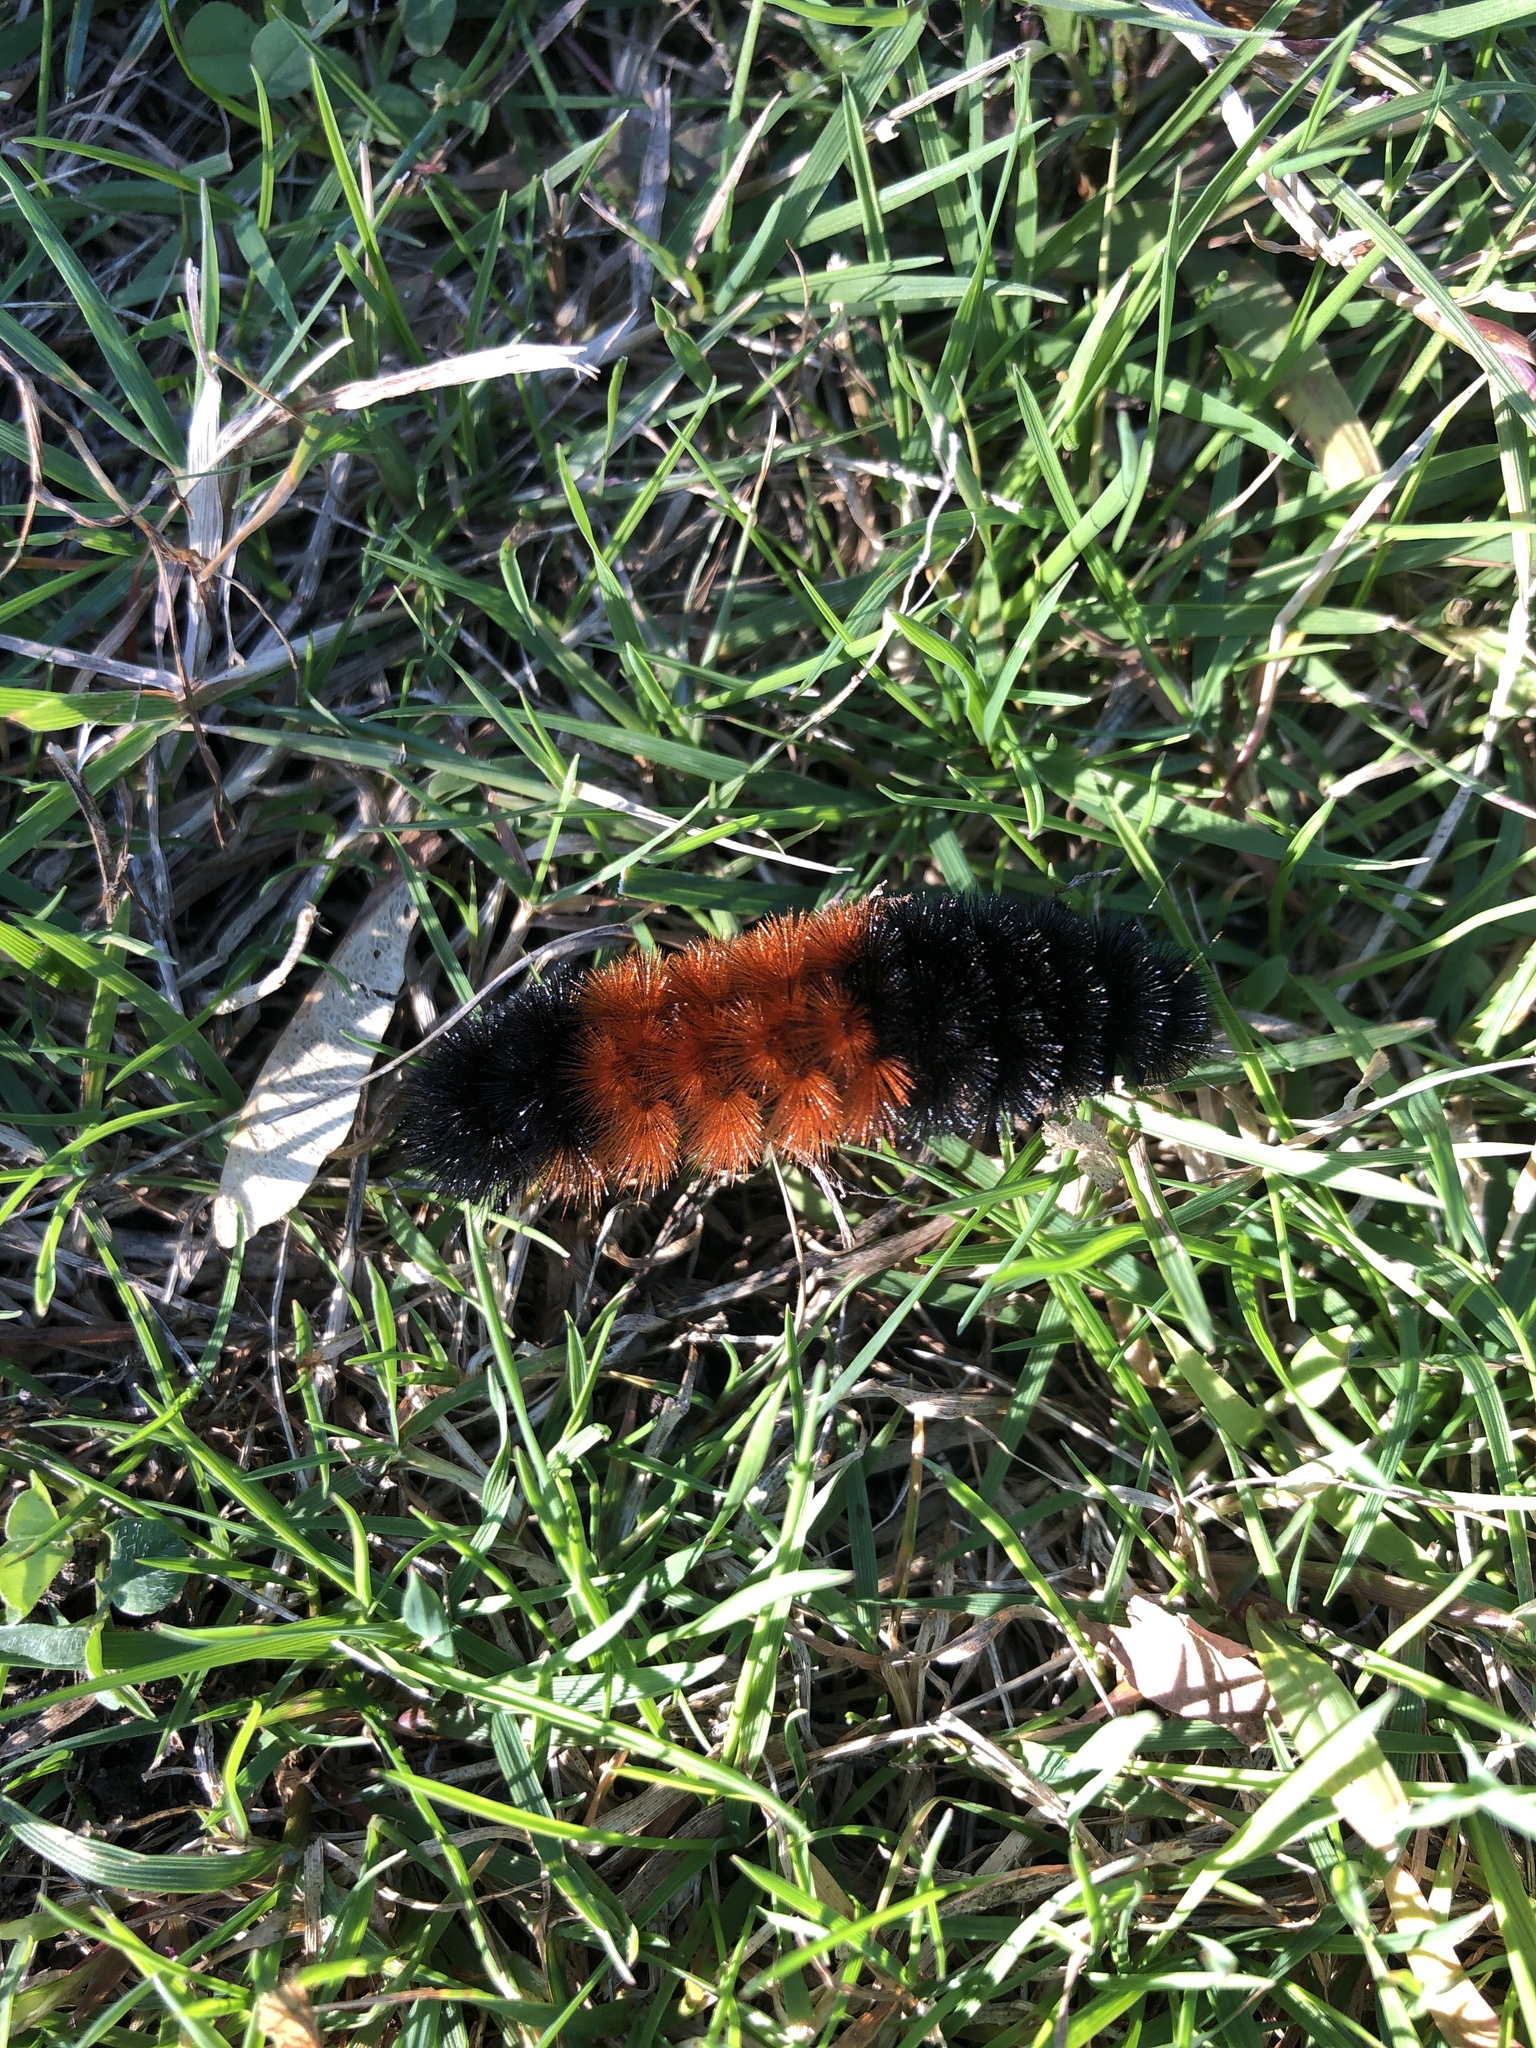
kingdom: Animalia
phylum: Arthropoda
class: Insecta
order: Lepidoptera
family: Erebidae
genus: Pyrrharctia
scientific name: Pyrrharctia isabella
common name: Isabella tiger moth
